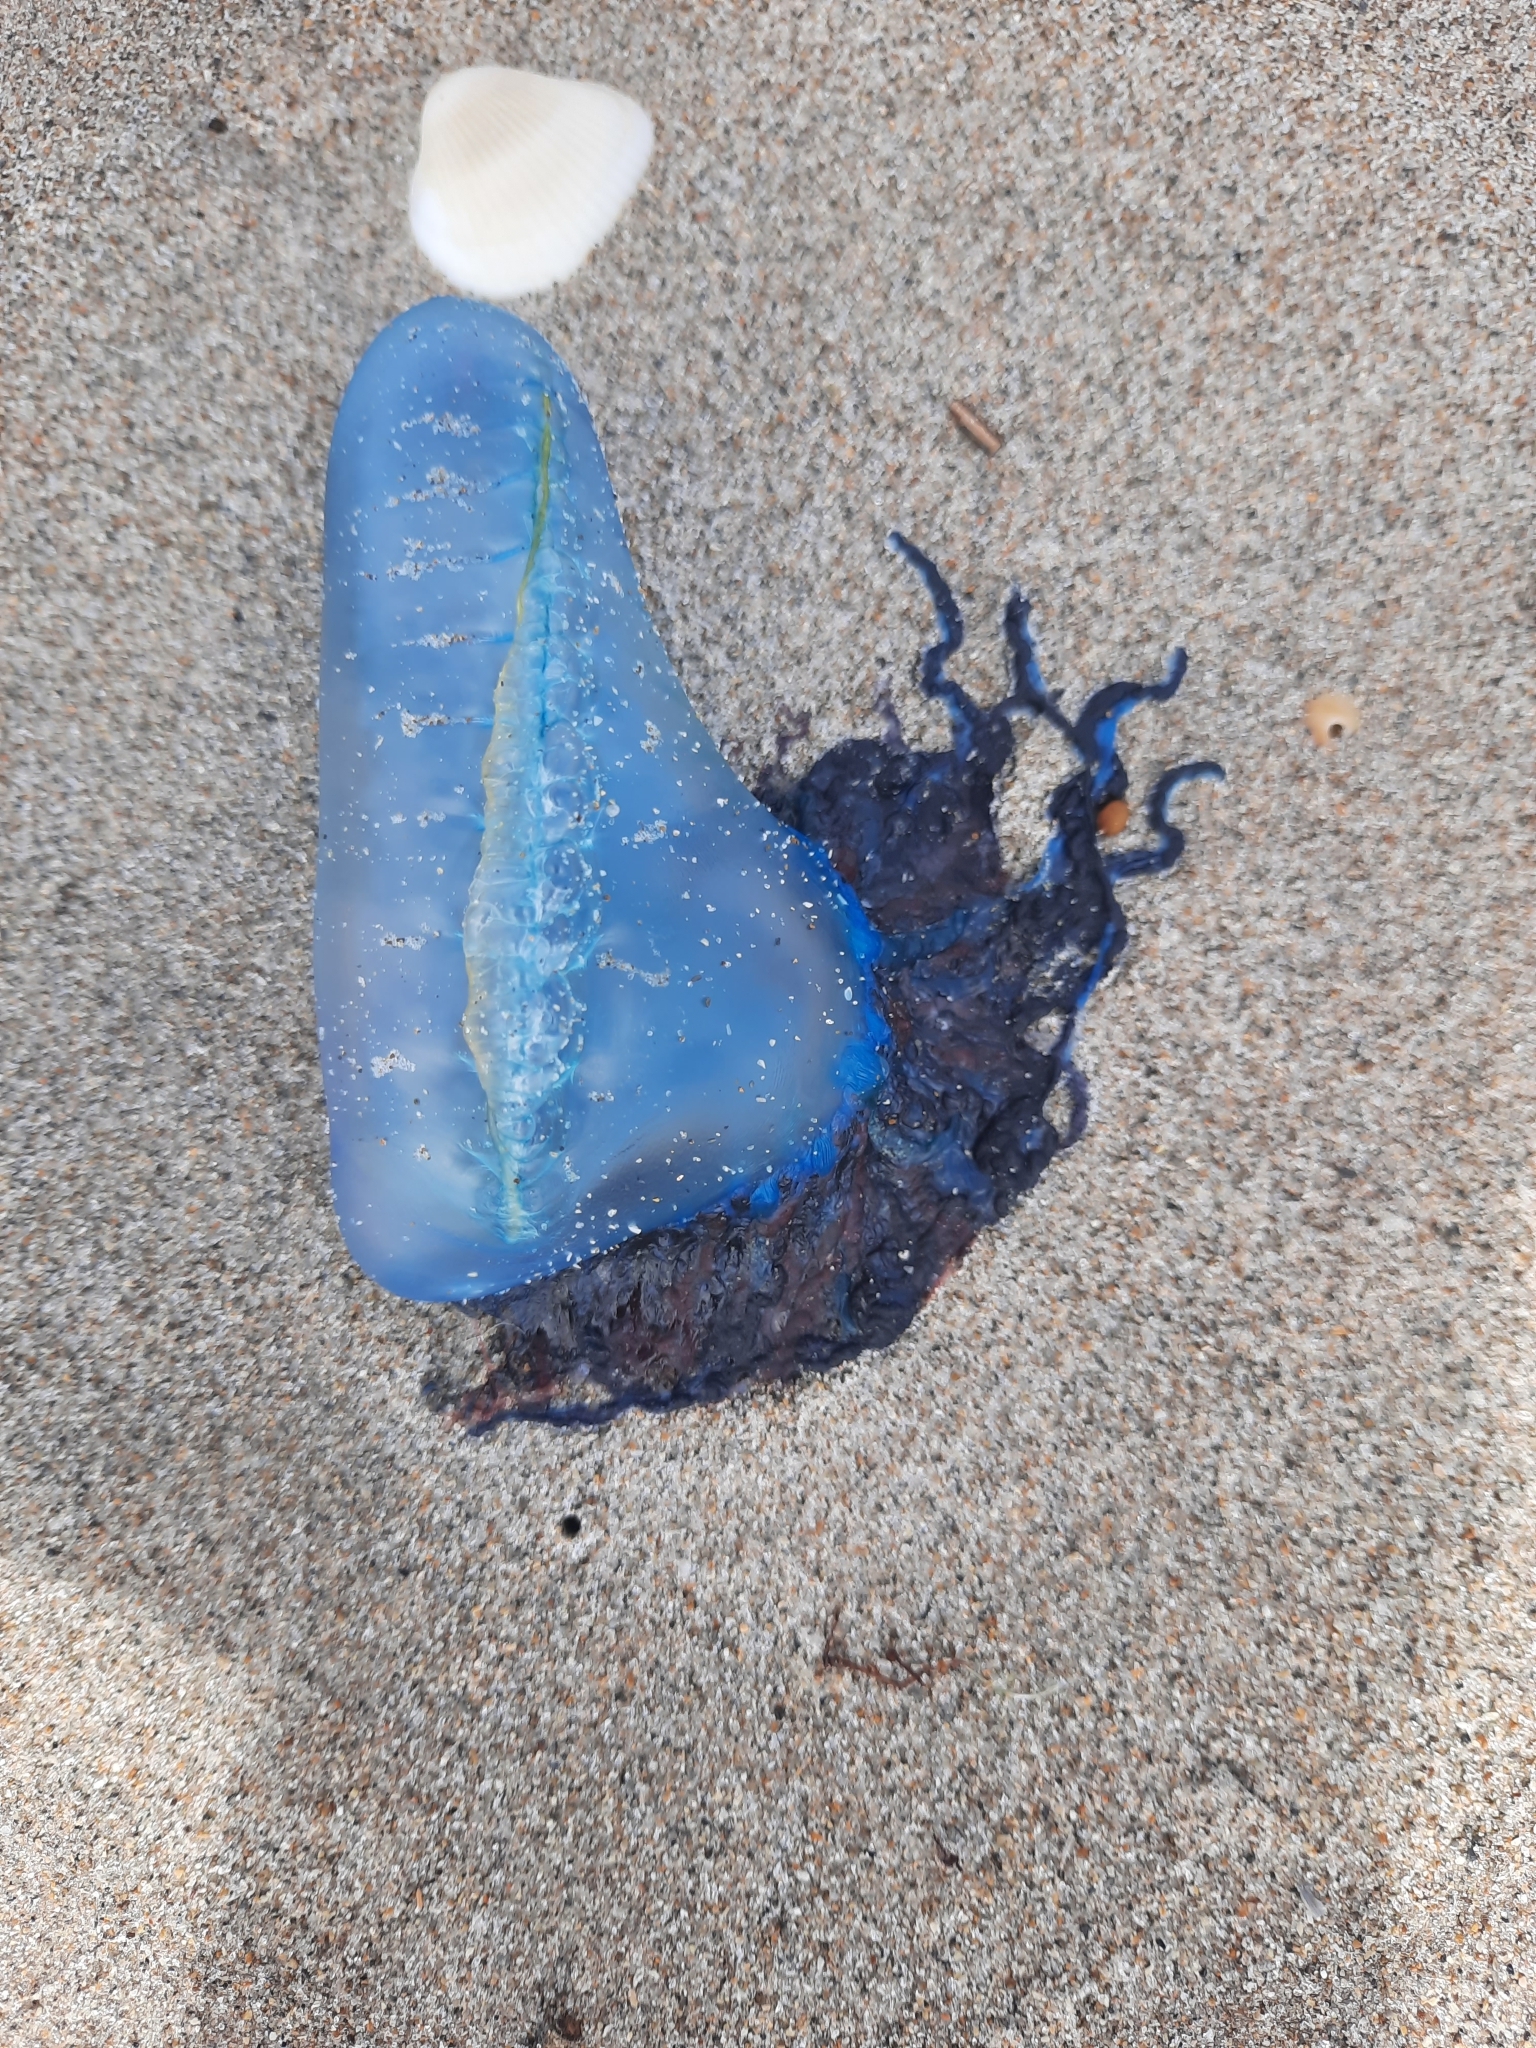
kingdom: Animalia
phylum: Cnidaria
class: Hydrozoa
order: Siphonophorae
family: Physaliidae
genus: Physalia
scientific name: Physalia physalis
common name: Portuguese man-of-war
